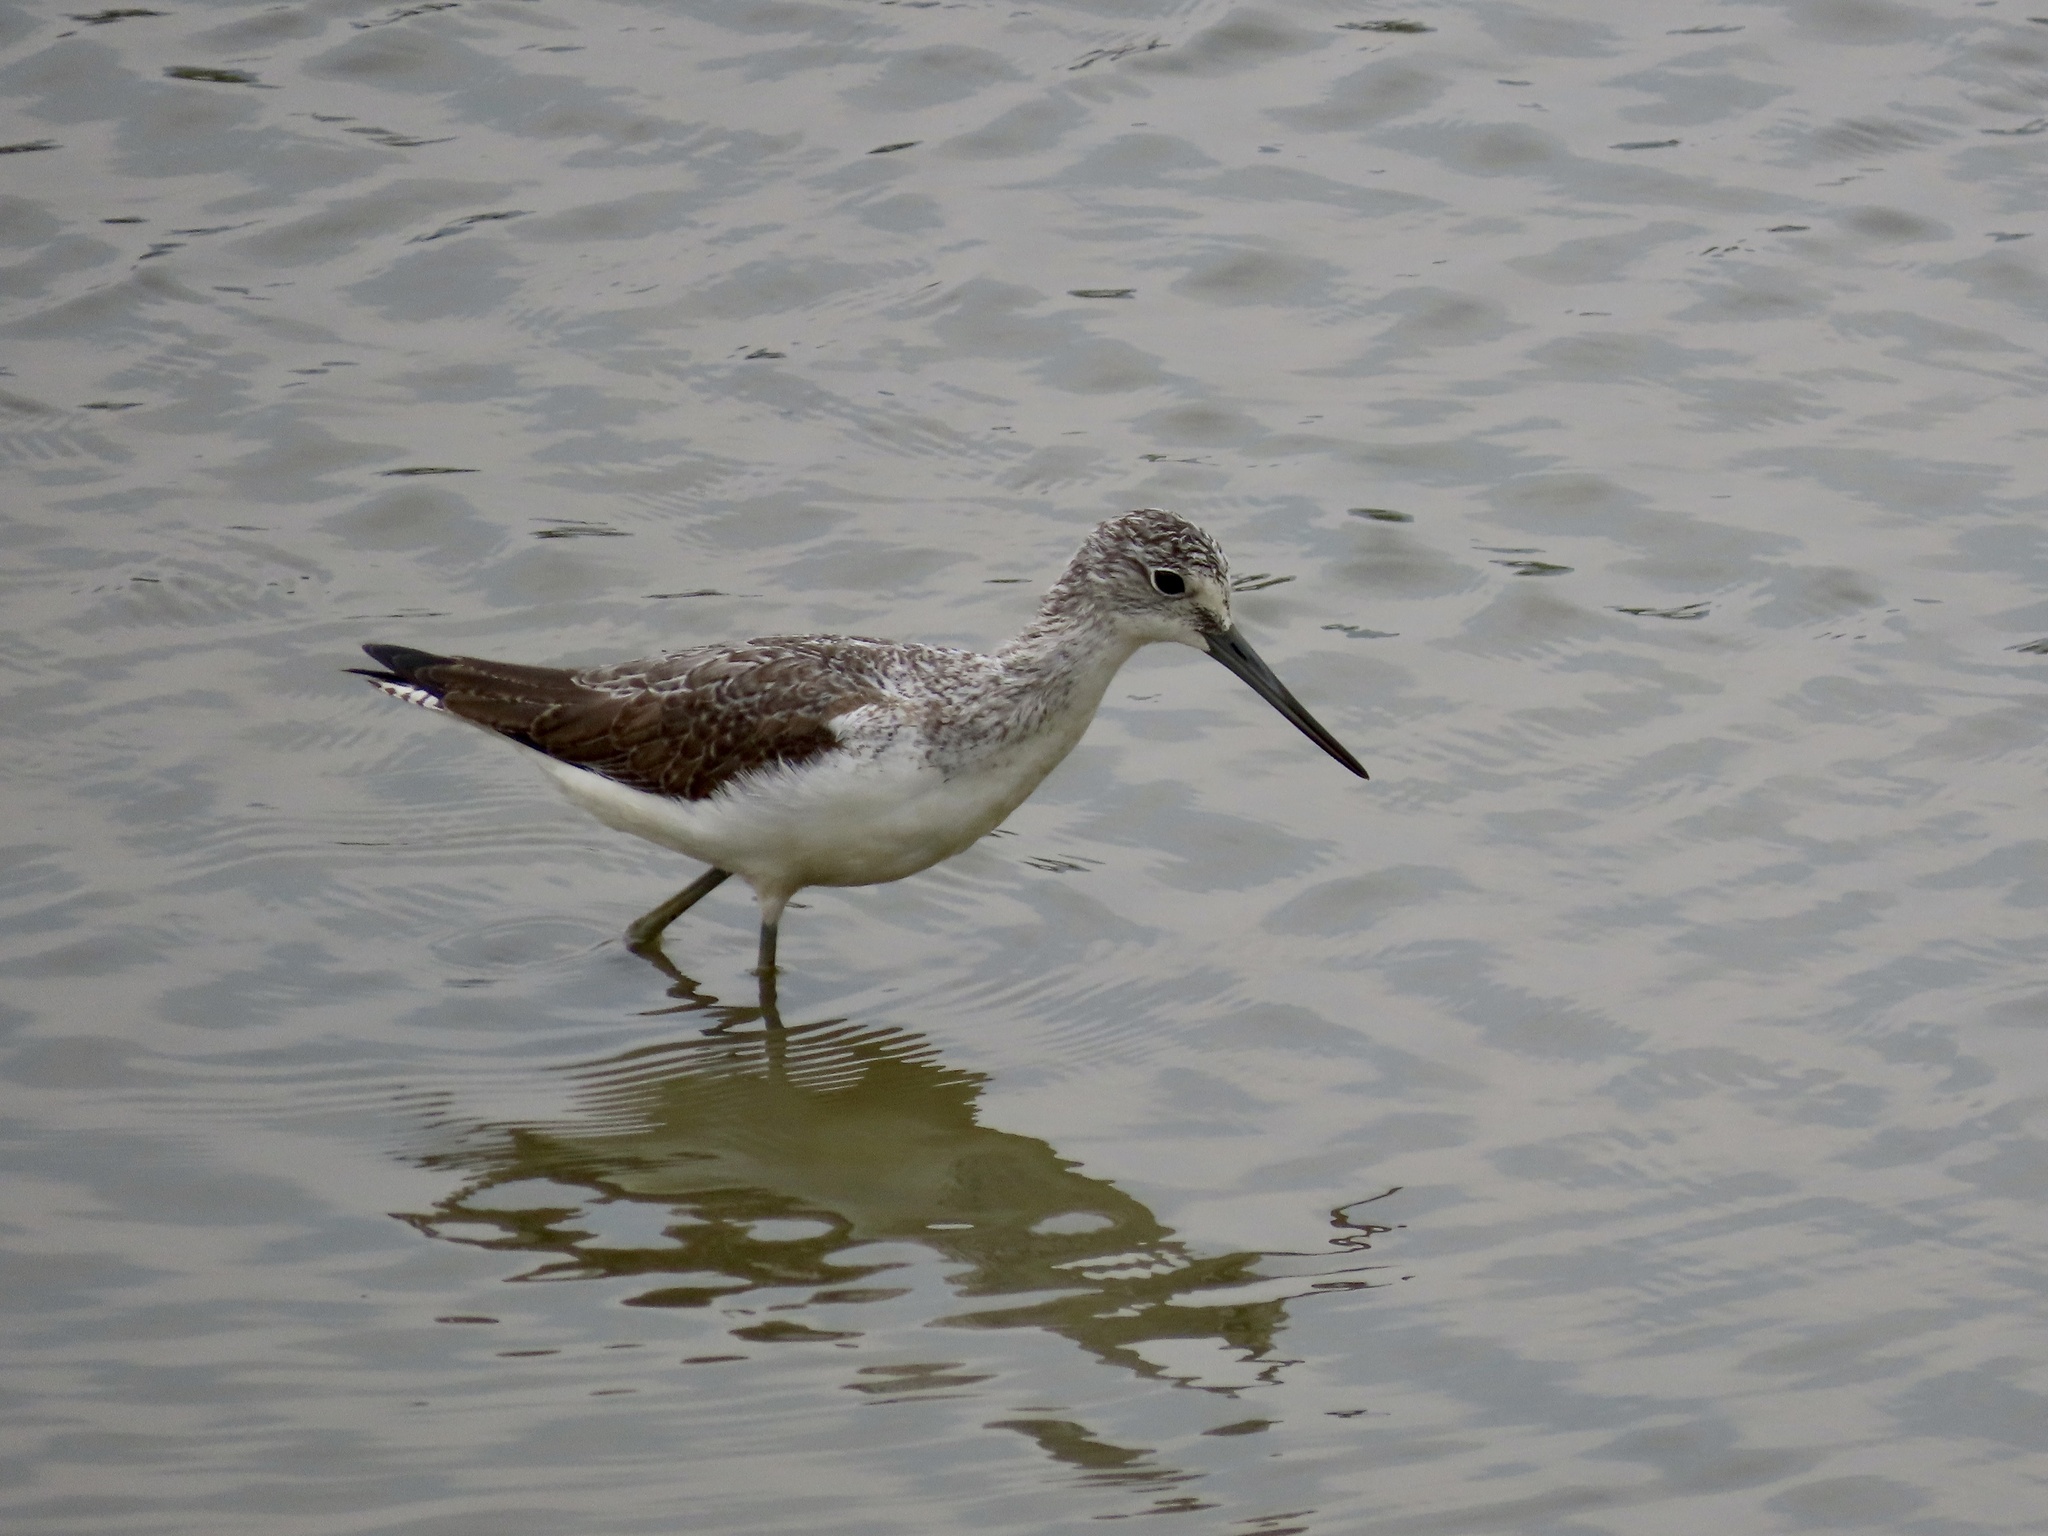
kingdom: Animalia
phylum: Chordata
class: Aves
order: Charadriiformes
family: Scolopacidae
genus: Tringa
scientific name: Tringa nebularia
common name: Common greenshank
